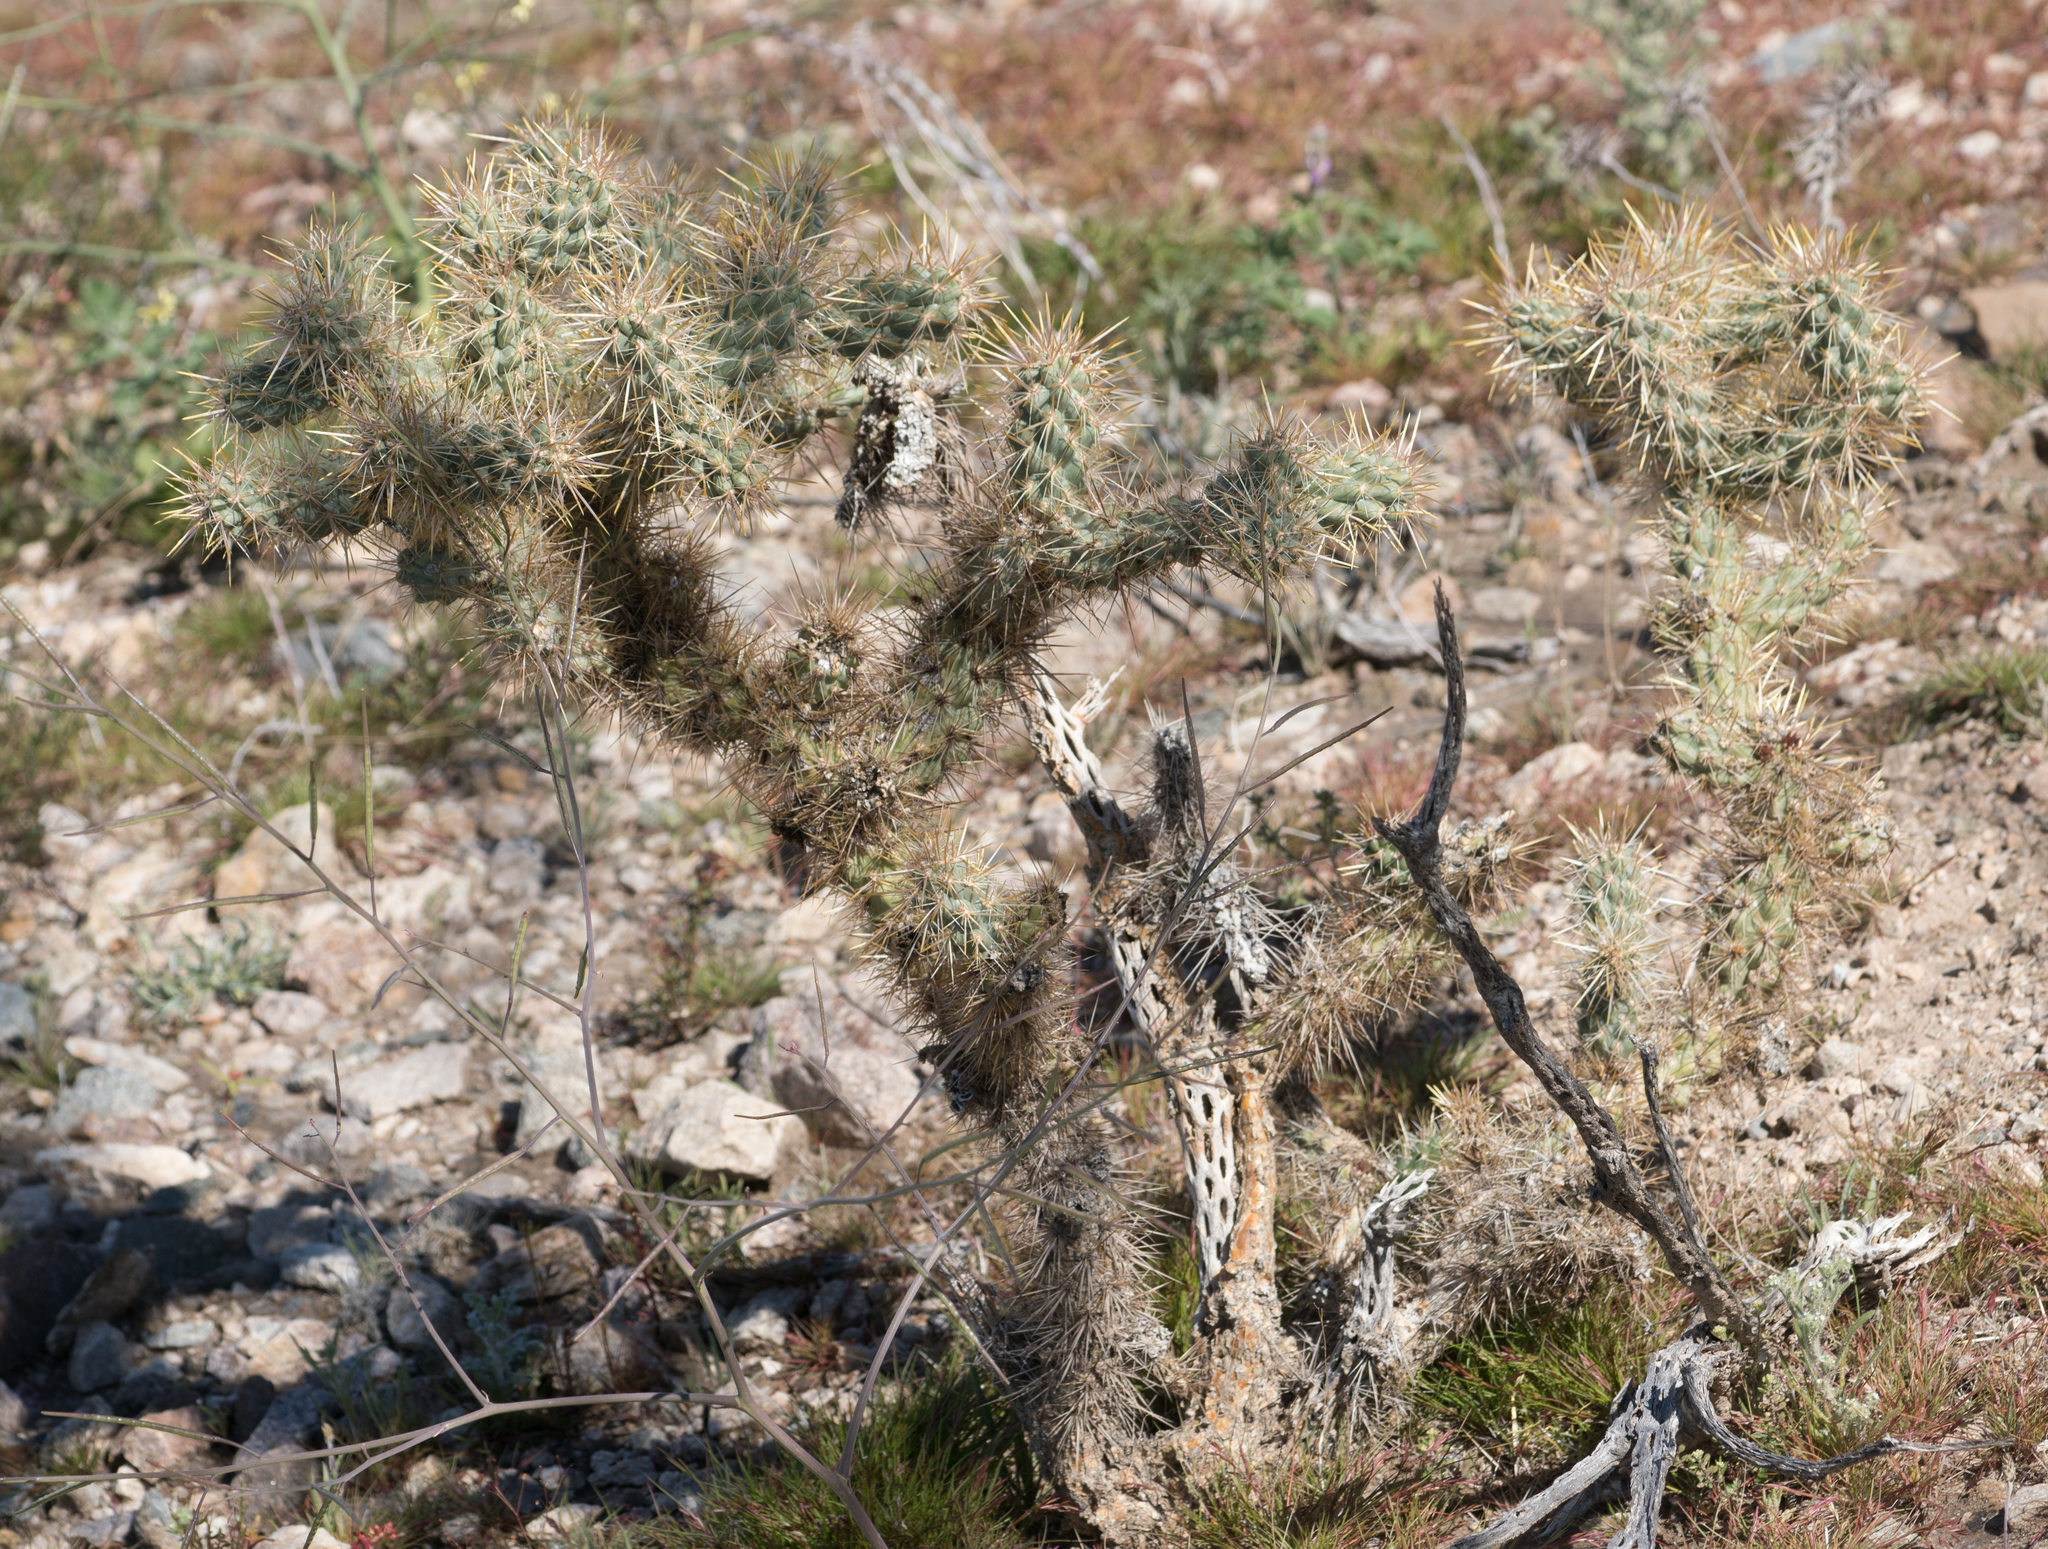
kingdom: Plantae
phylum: Tracheophyta
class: Magnoliopsida
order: Caryophyllales
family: Cactaceae
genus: Cylindropuntia
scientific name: Cylindropuntia echinocarpa
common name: Ground cholla
